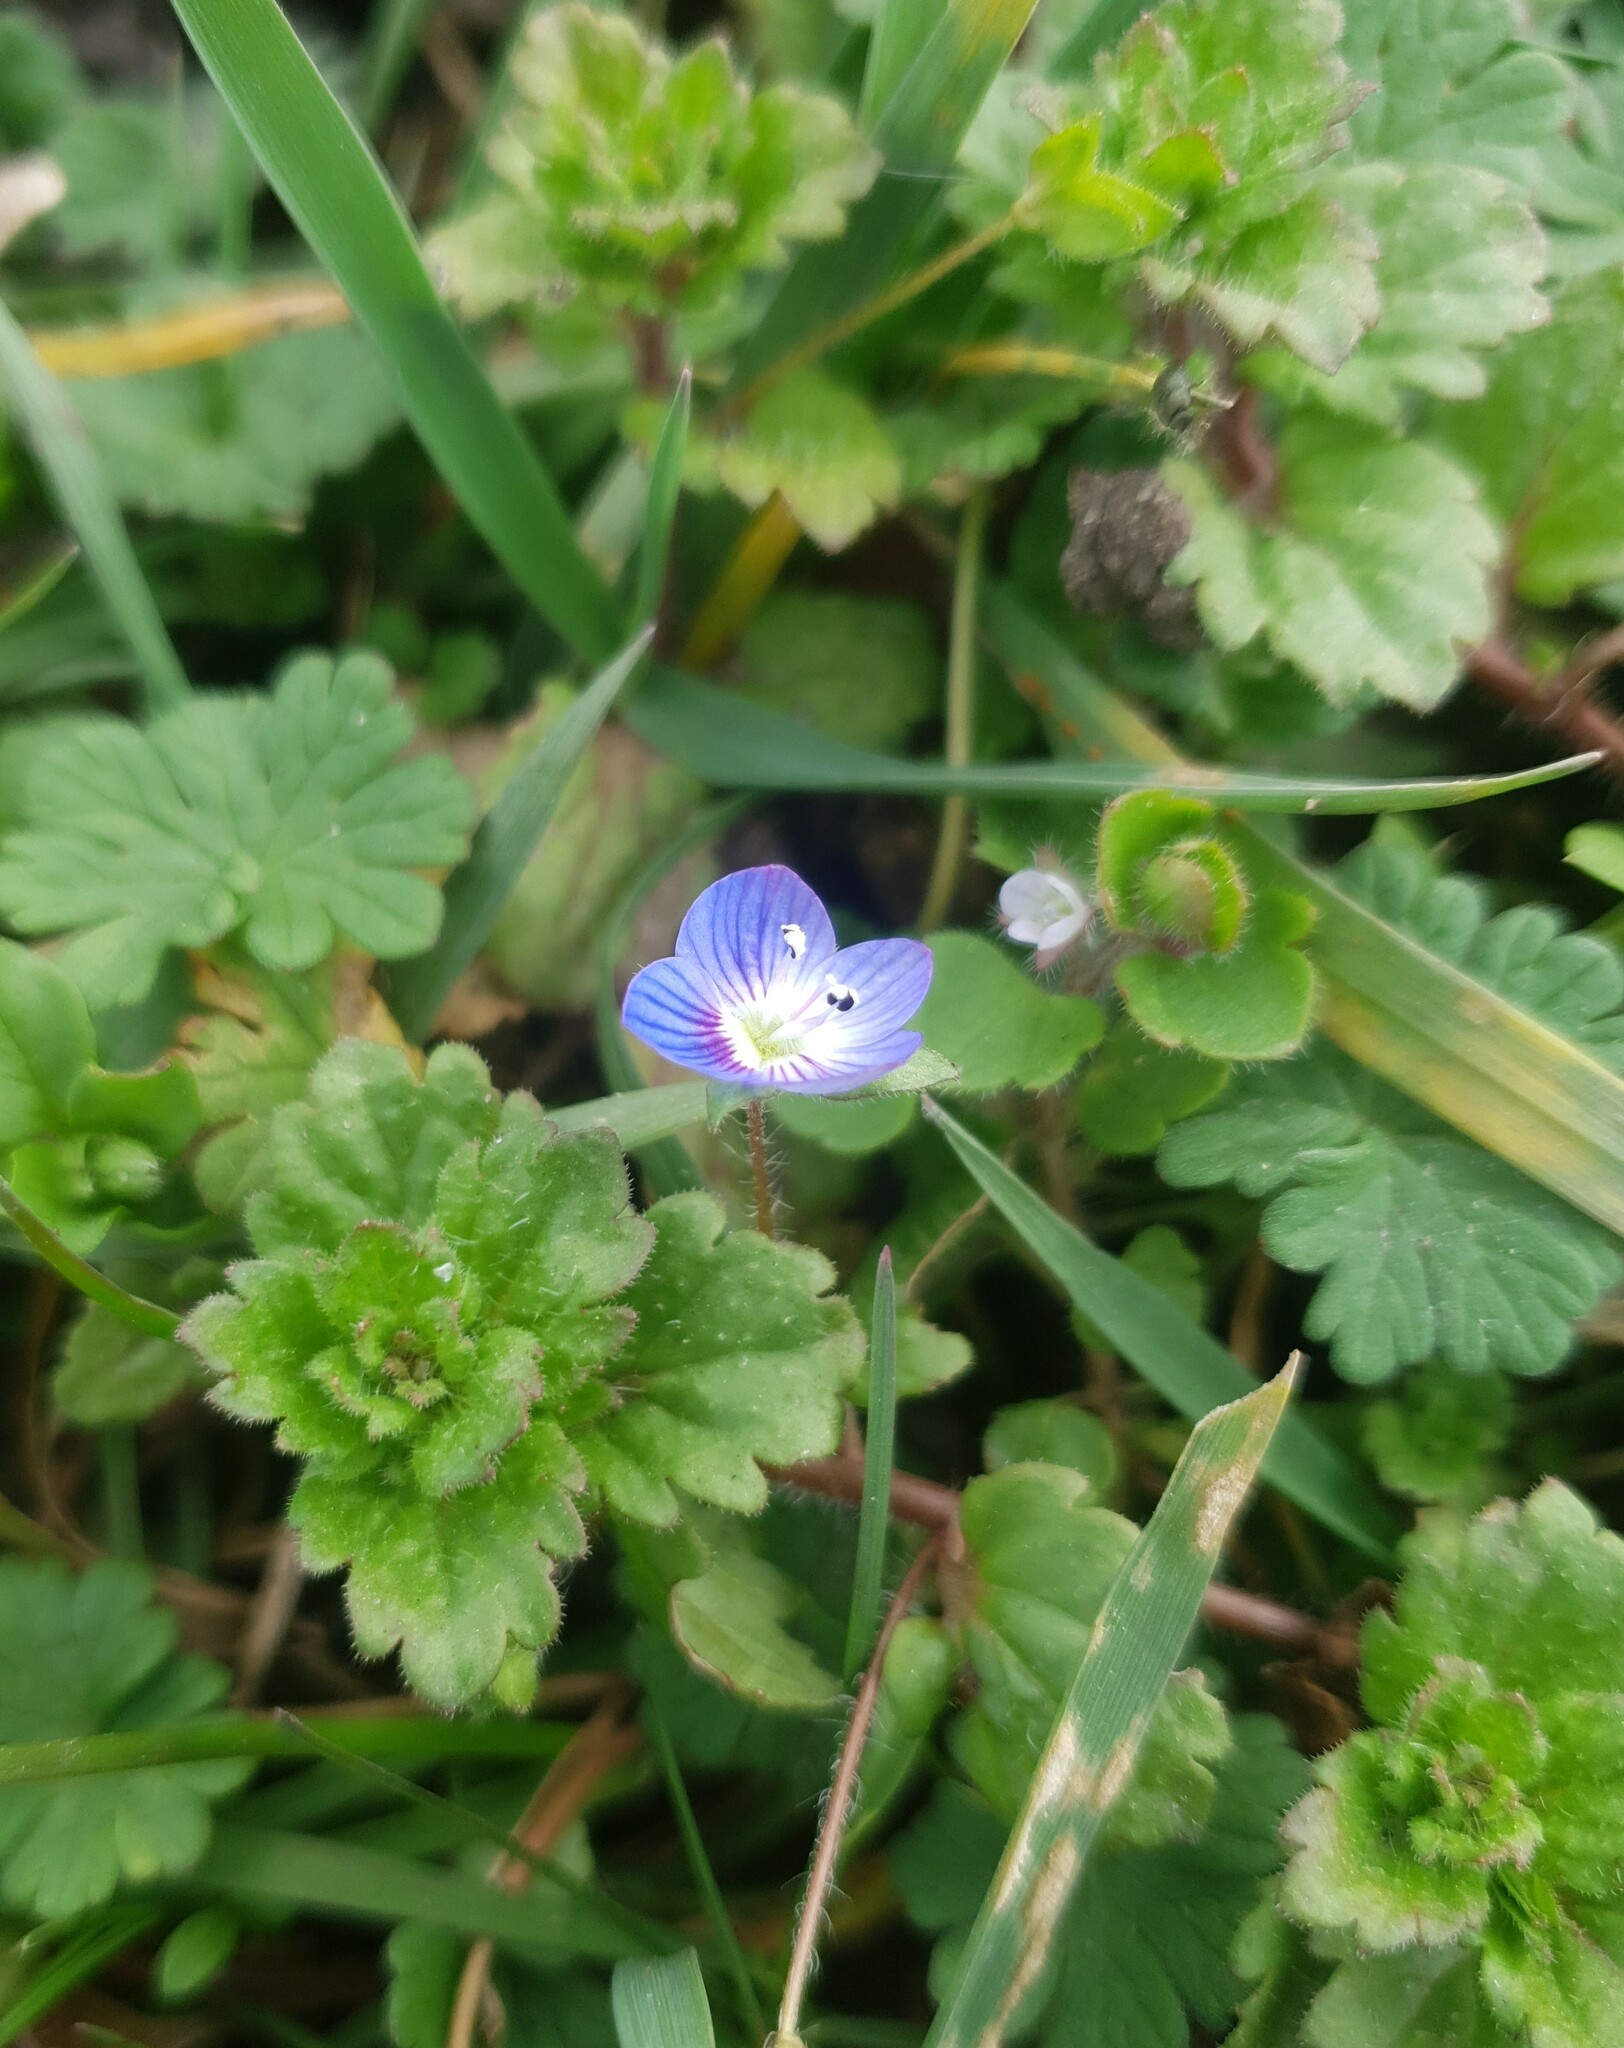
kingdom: Plantae
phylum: Tracheophyta
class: Magnoliopsida
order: Lamiales
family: Plantaginaceae
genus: Veronica
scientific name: Veronica persica
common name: Common field-speedwell
